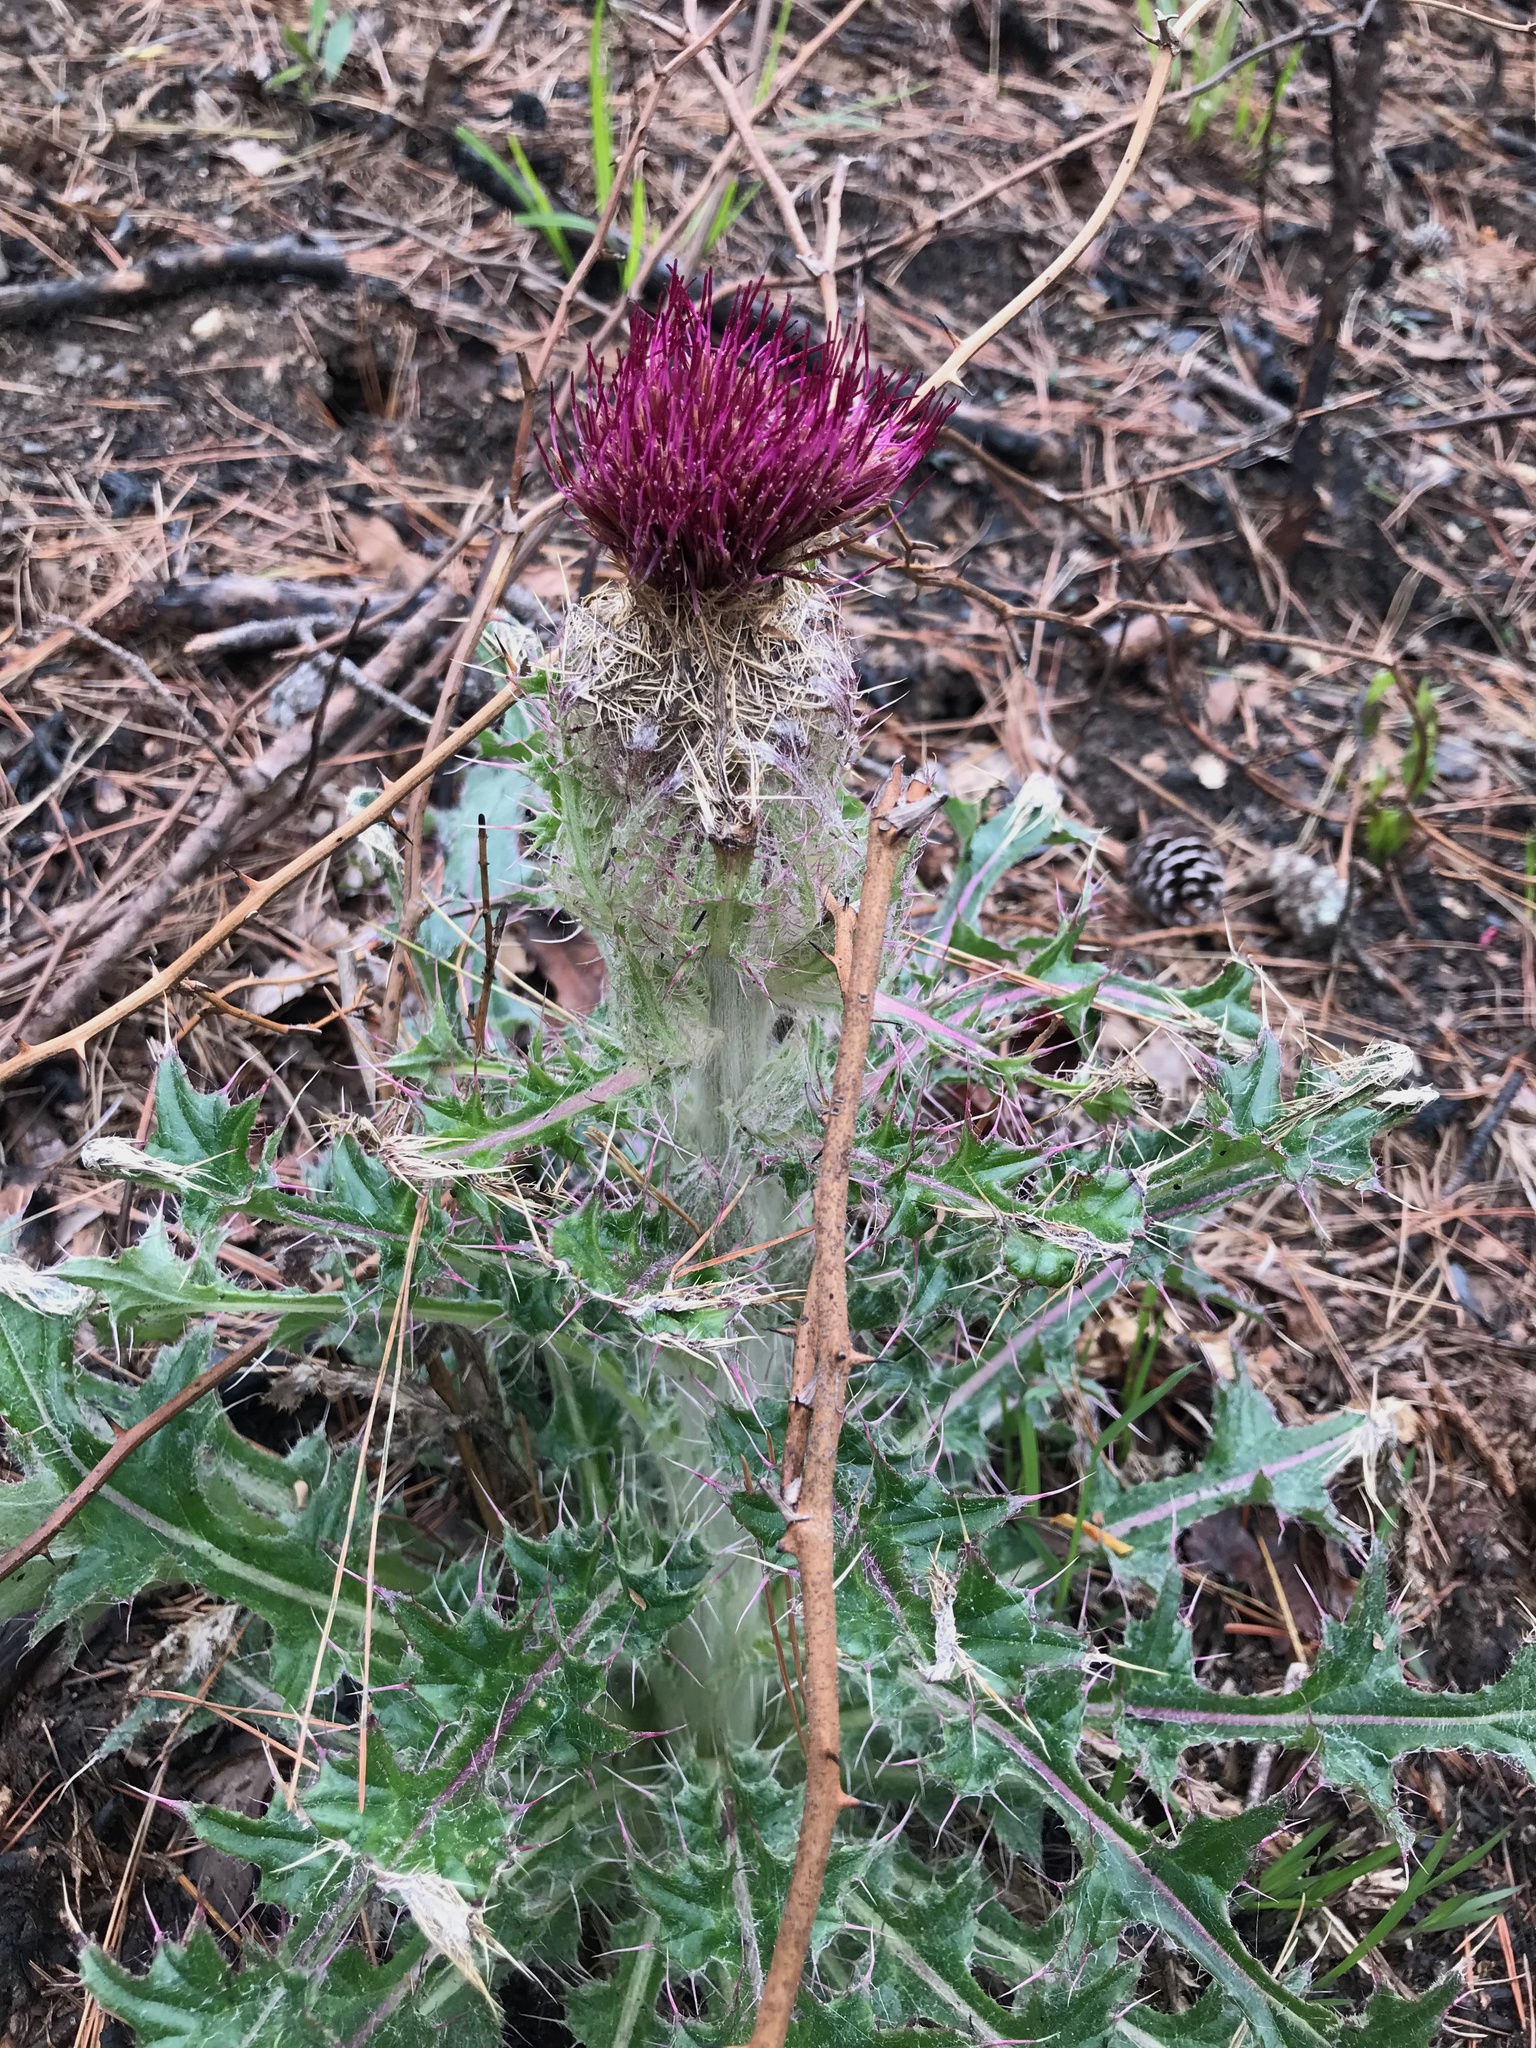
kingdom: Plantae
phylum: Tracheophyta
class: Magnoliopsida
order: Asterales
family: Asteraceae
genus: Cirsium
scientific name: Cirsium horridulum
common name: Bristly thistle
